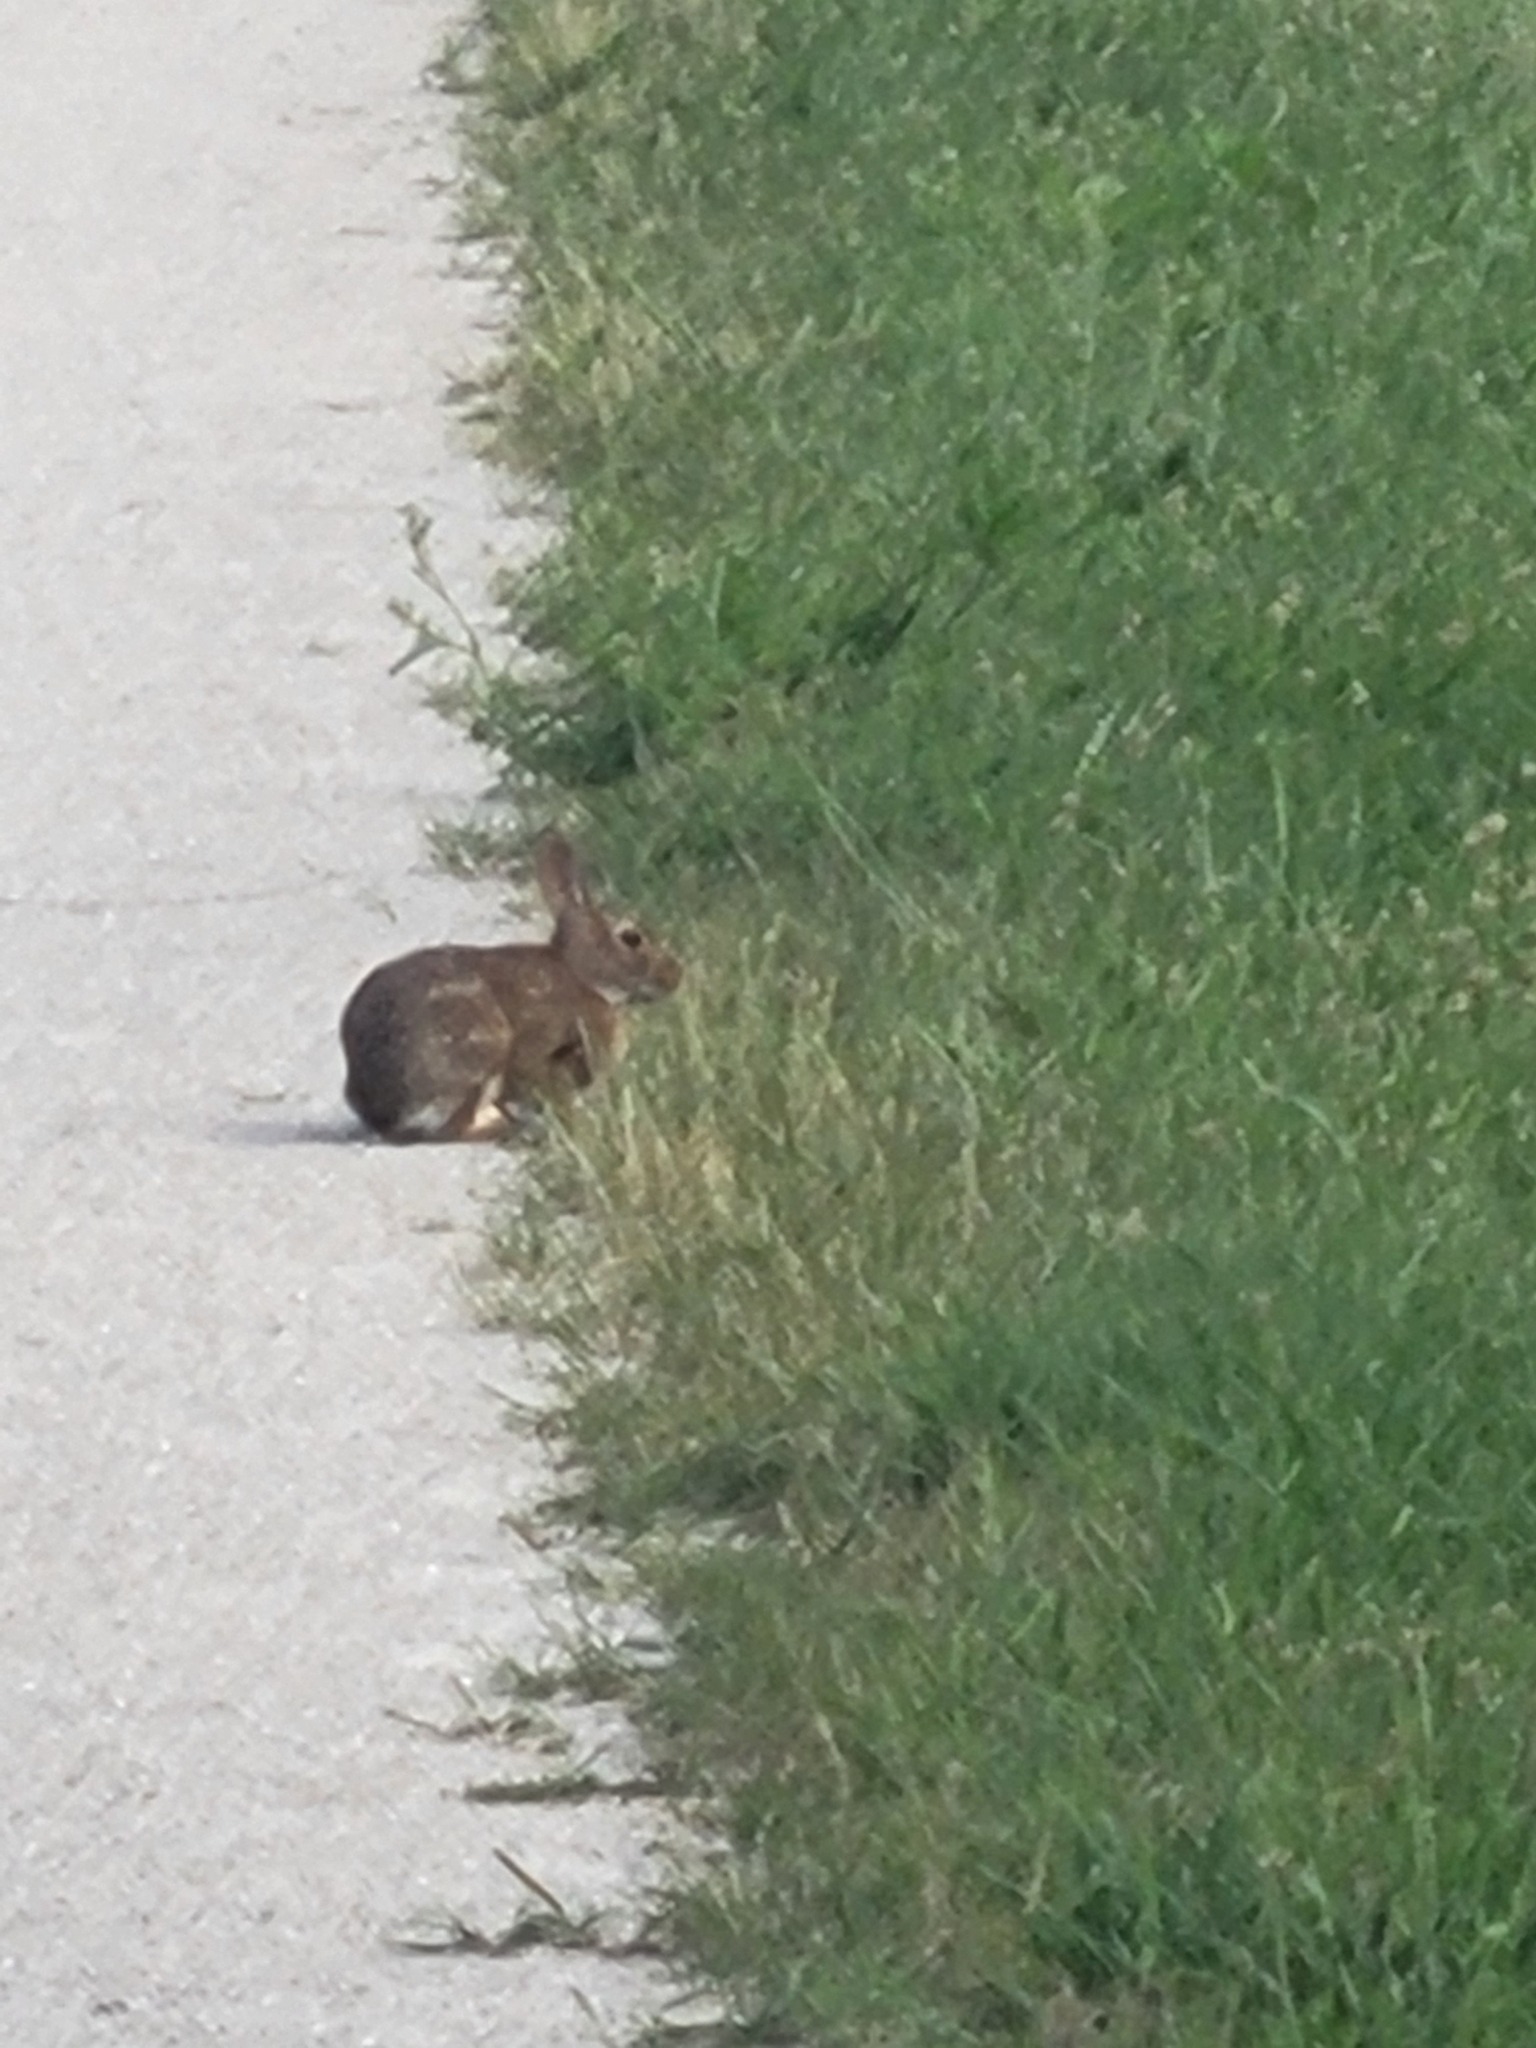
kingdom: Animalia
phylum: Chordata
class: Mammalia
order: Lagomorpha
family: Leporidae
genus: Sylvilagus
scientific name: Sylvilagus floridanus
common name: Eastern cottontail
